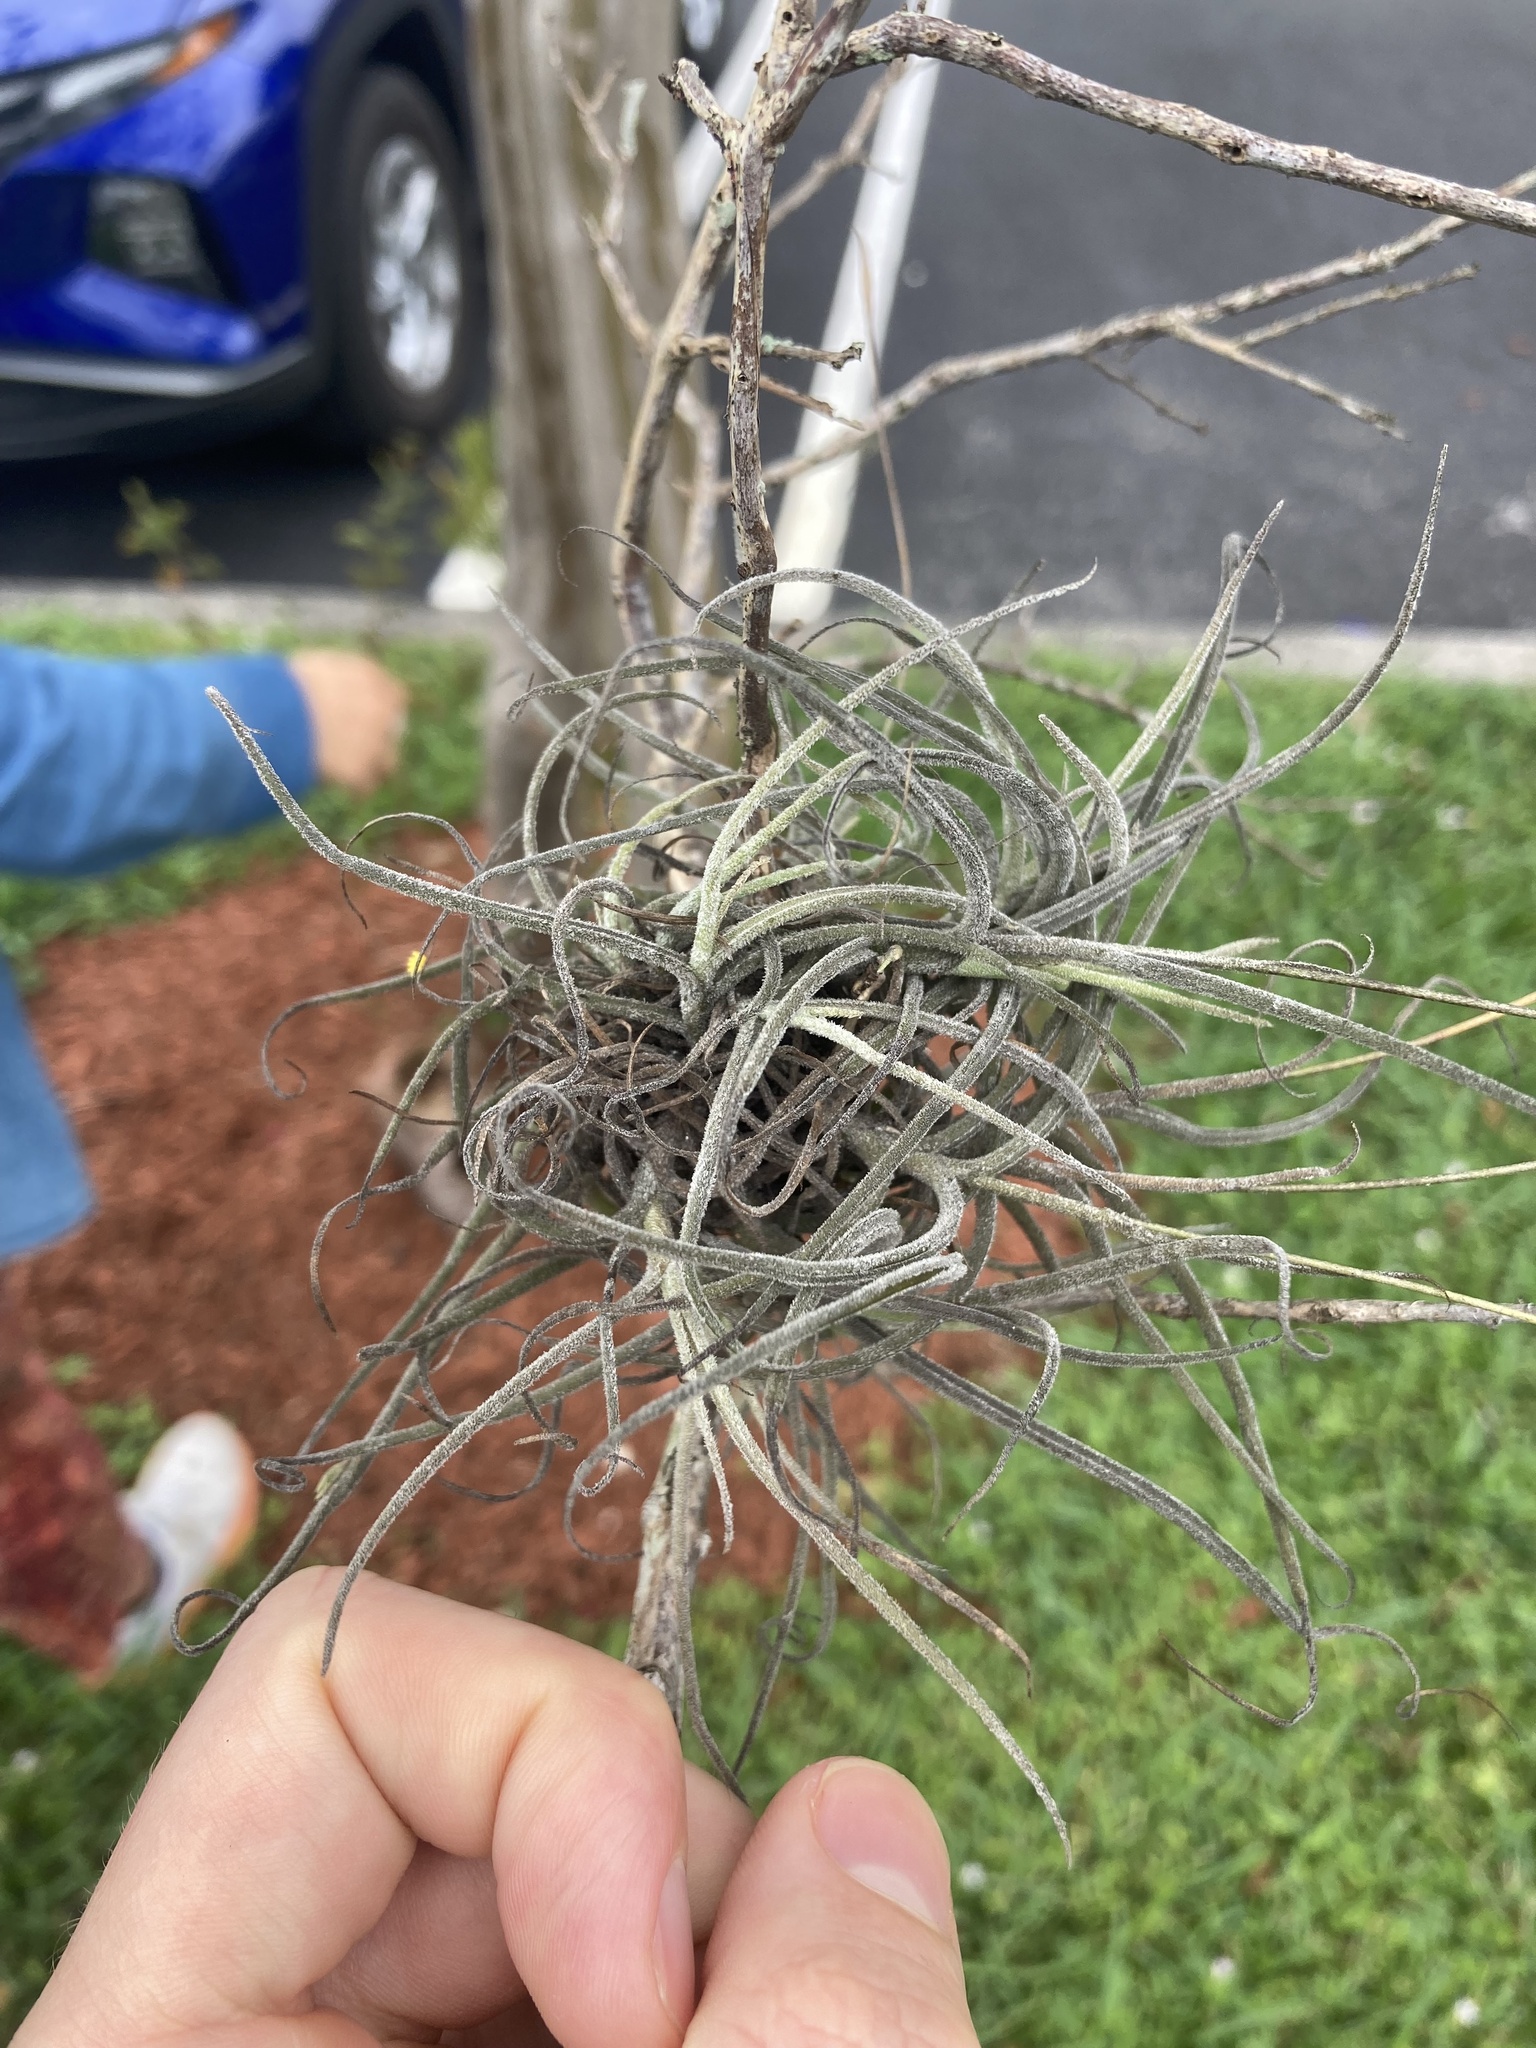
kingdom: Plantae
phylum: Tracheophyta
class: Liliopsida
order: Poales
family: Bromeliaceae
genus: Tillandsia
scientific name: Tillandsia recurvata
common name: Small ballmoss
